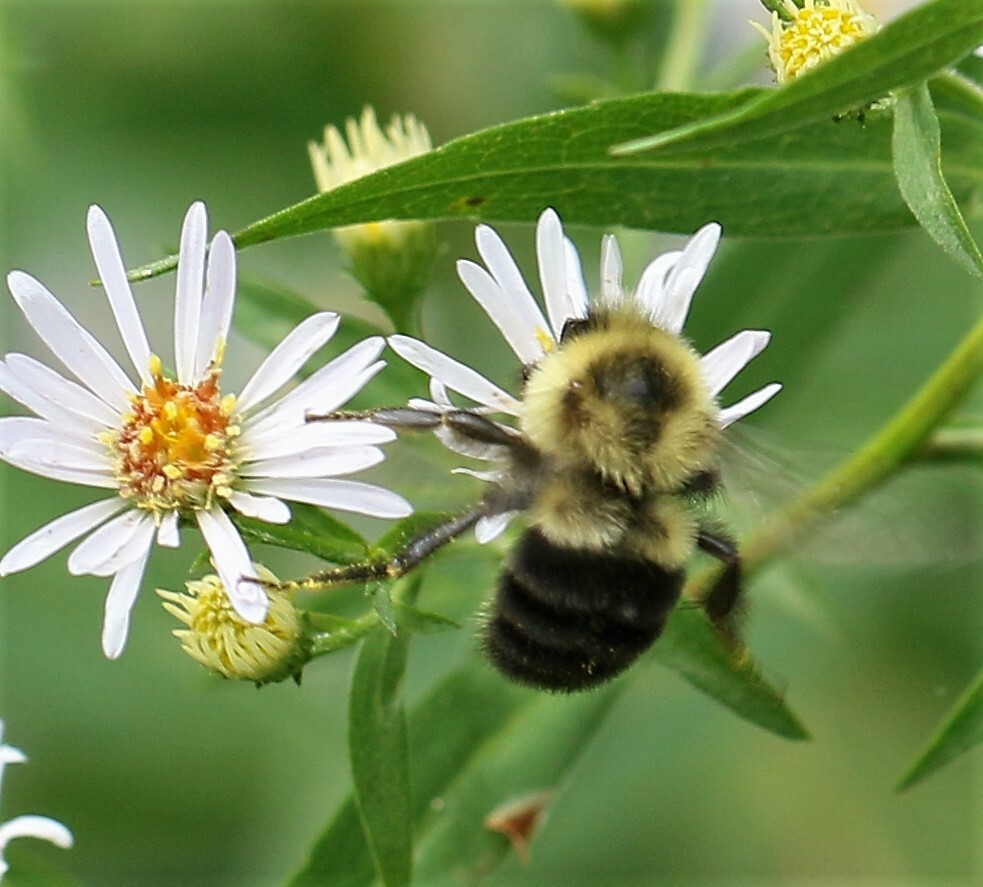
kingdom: Animalia
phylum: Arthropoda
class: Insecta
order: Hymenoptera
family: Apidae
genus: Bombus
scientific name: Bombus impatiens
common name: Common eastern bumble bee
